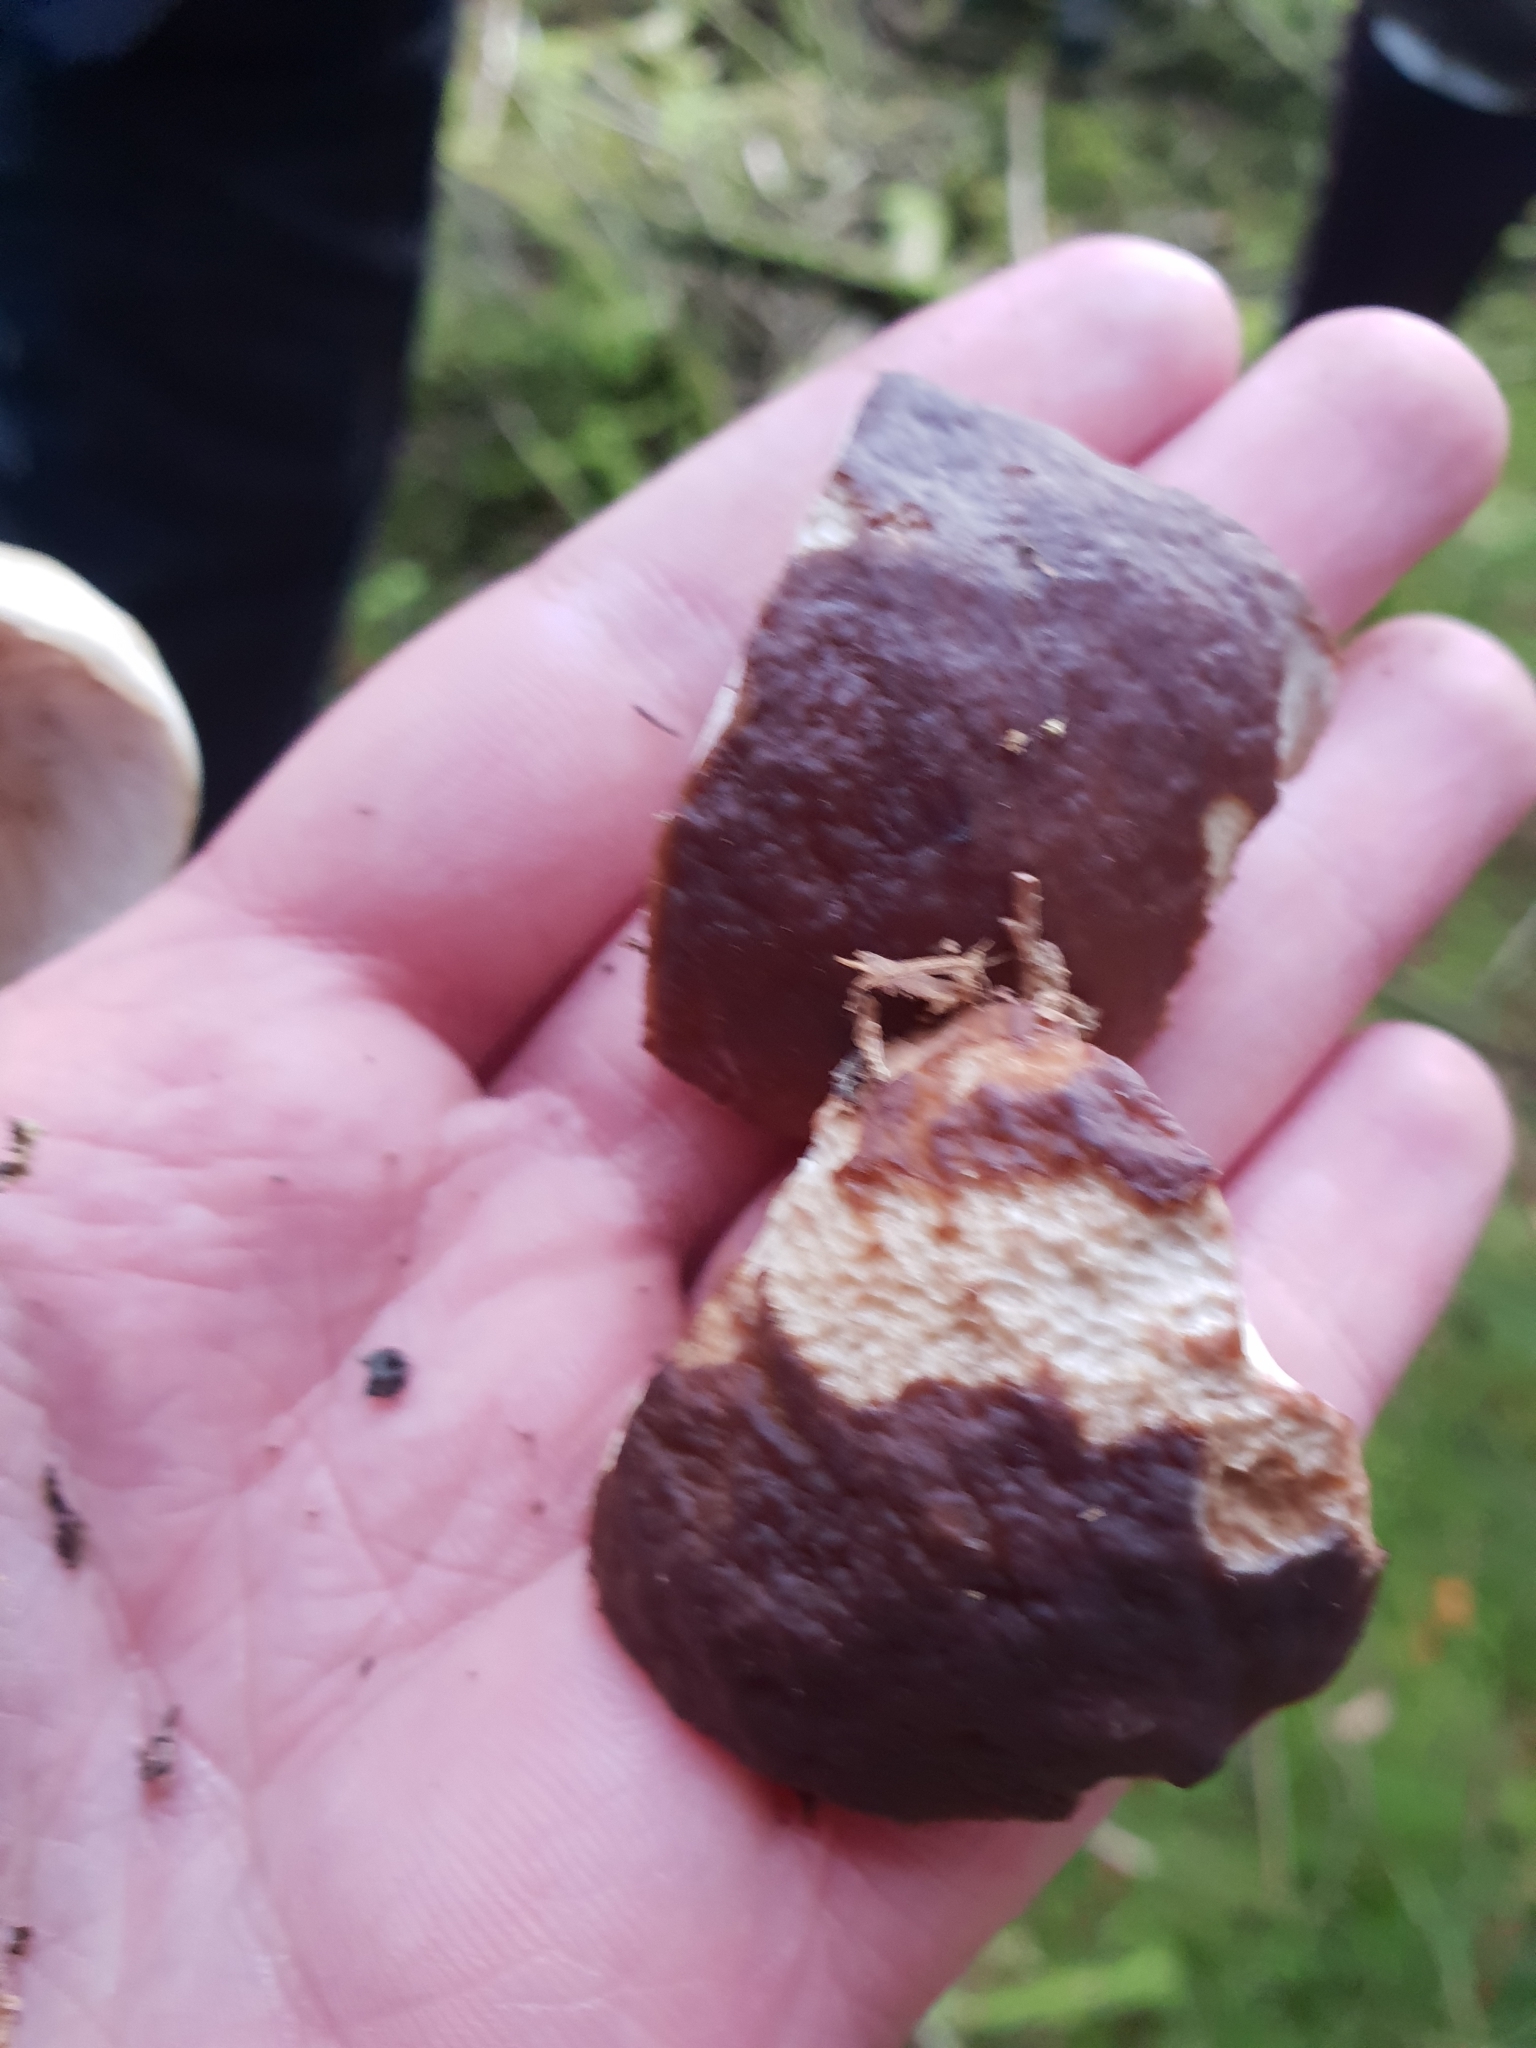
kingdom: Fungi
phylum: Basidiomycota
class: Agaricomycetes
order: Boletales
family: Boletaceae
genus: Boletus
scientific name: Boletus pinophilus
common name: Pine bolete
